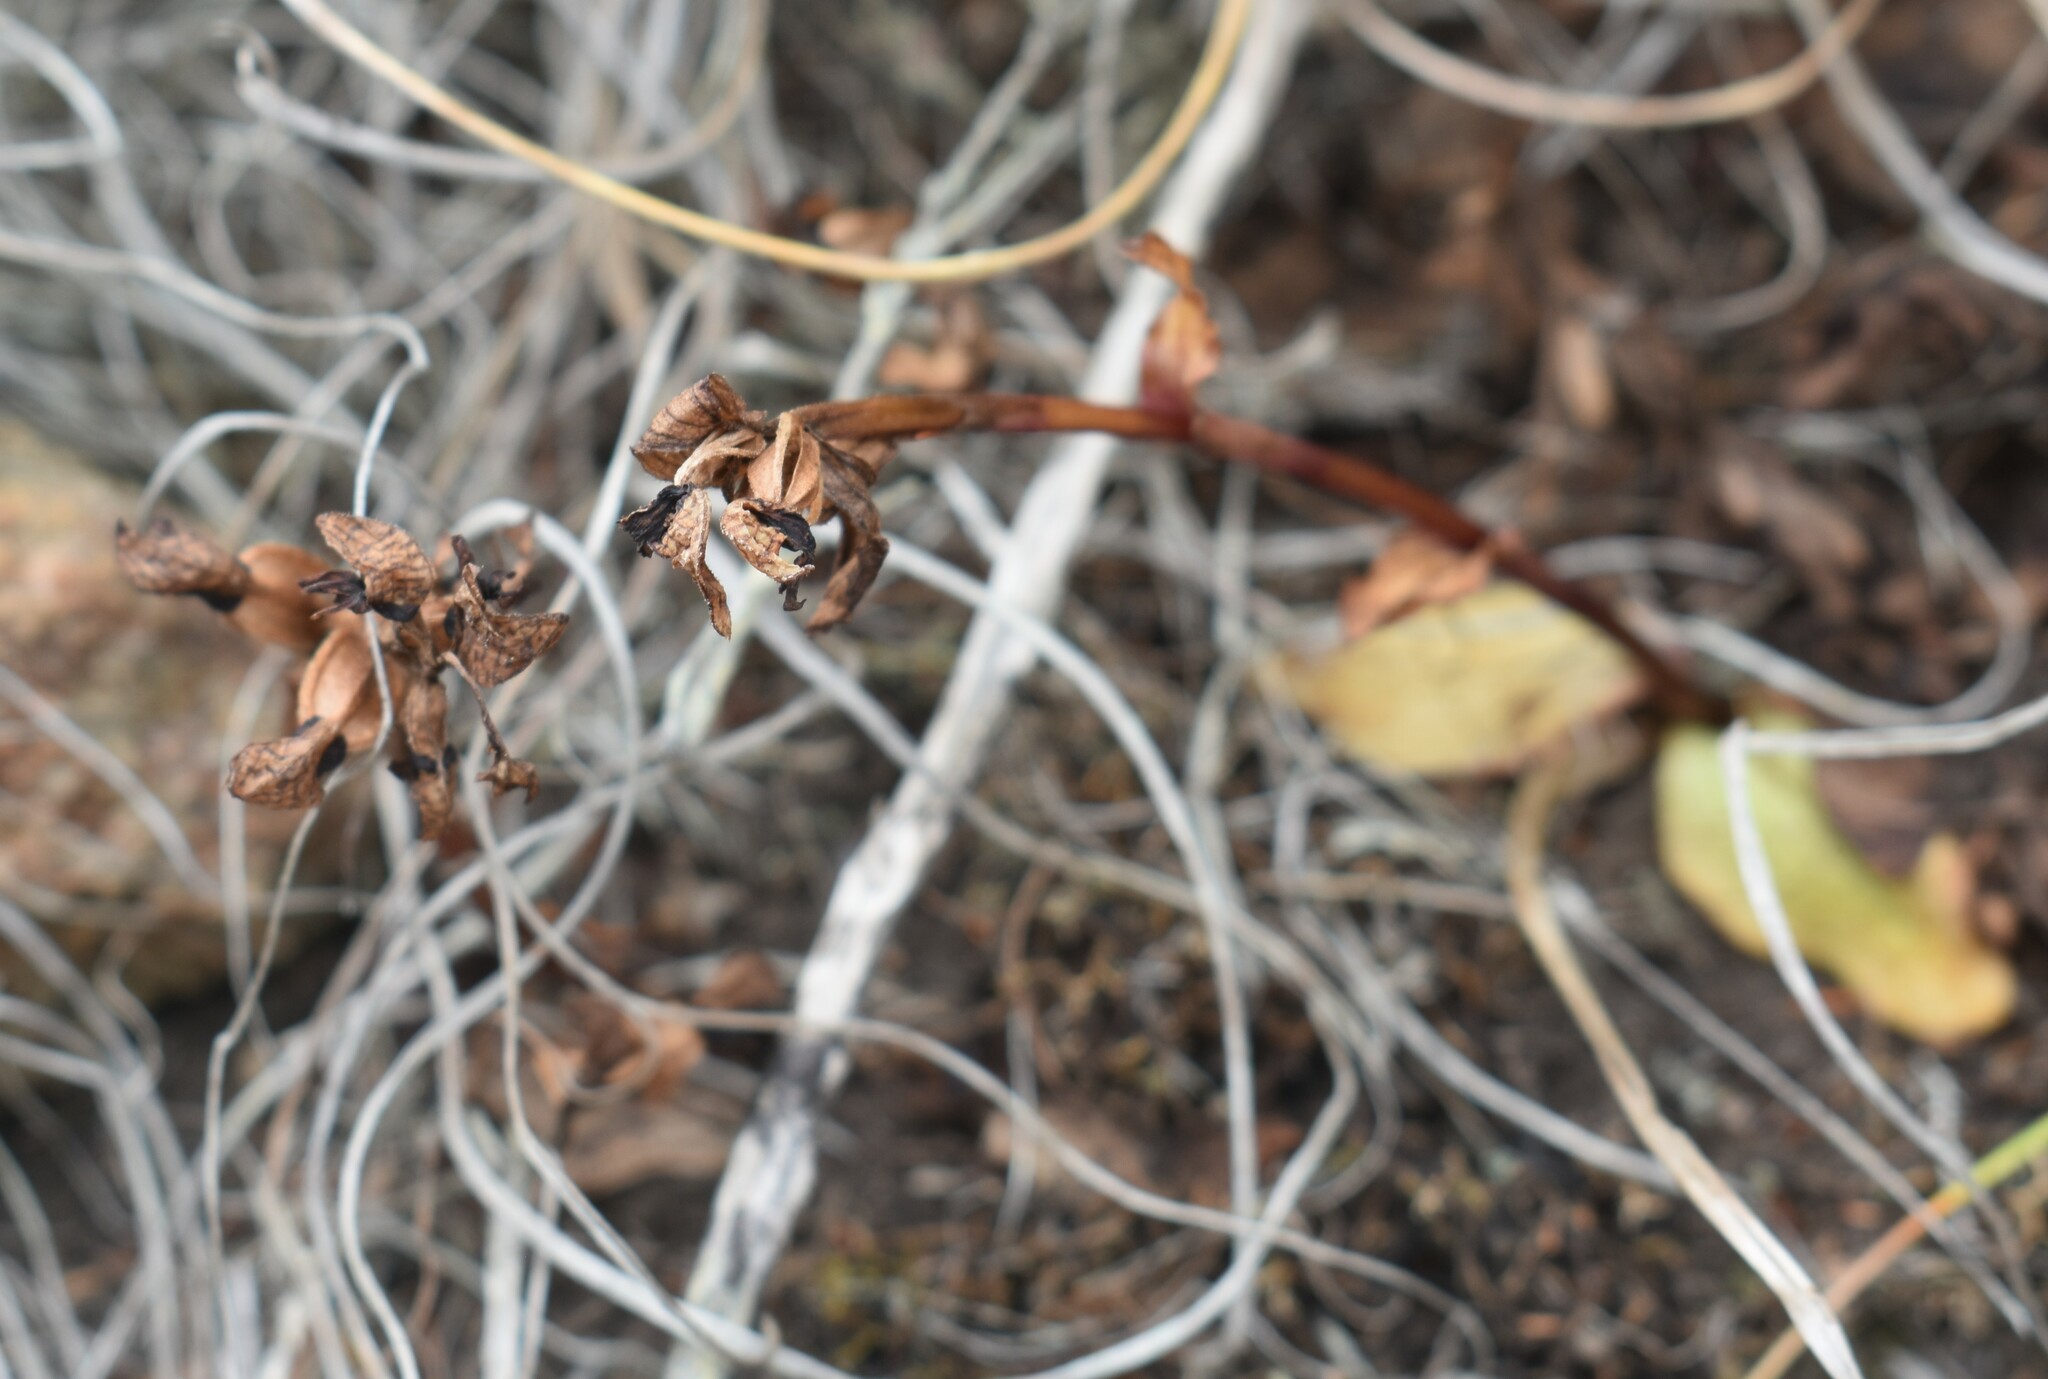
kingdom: Plantae
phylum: Tracheophyta
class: Liliopsida
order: Asparagales
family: Orchidaceae
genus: Satyrium
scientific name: Satyrium bracteatum
